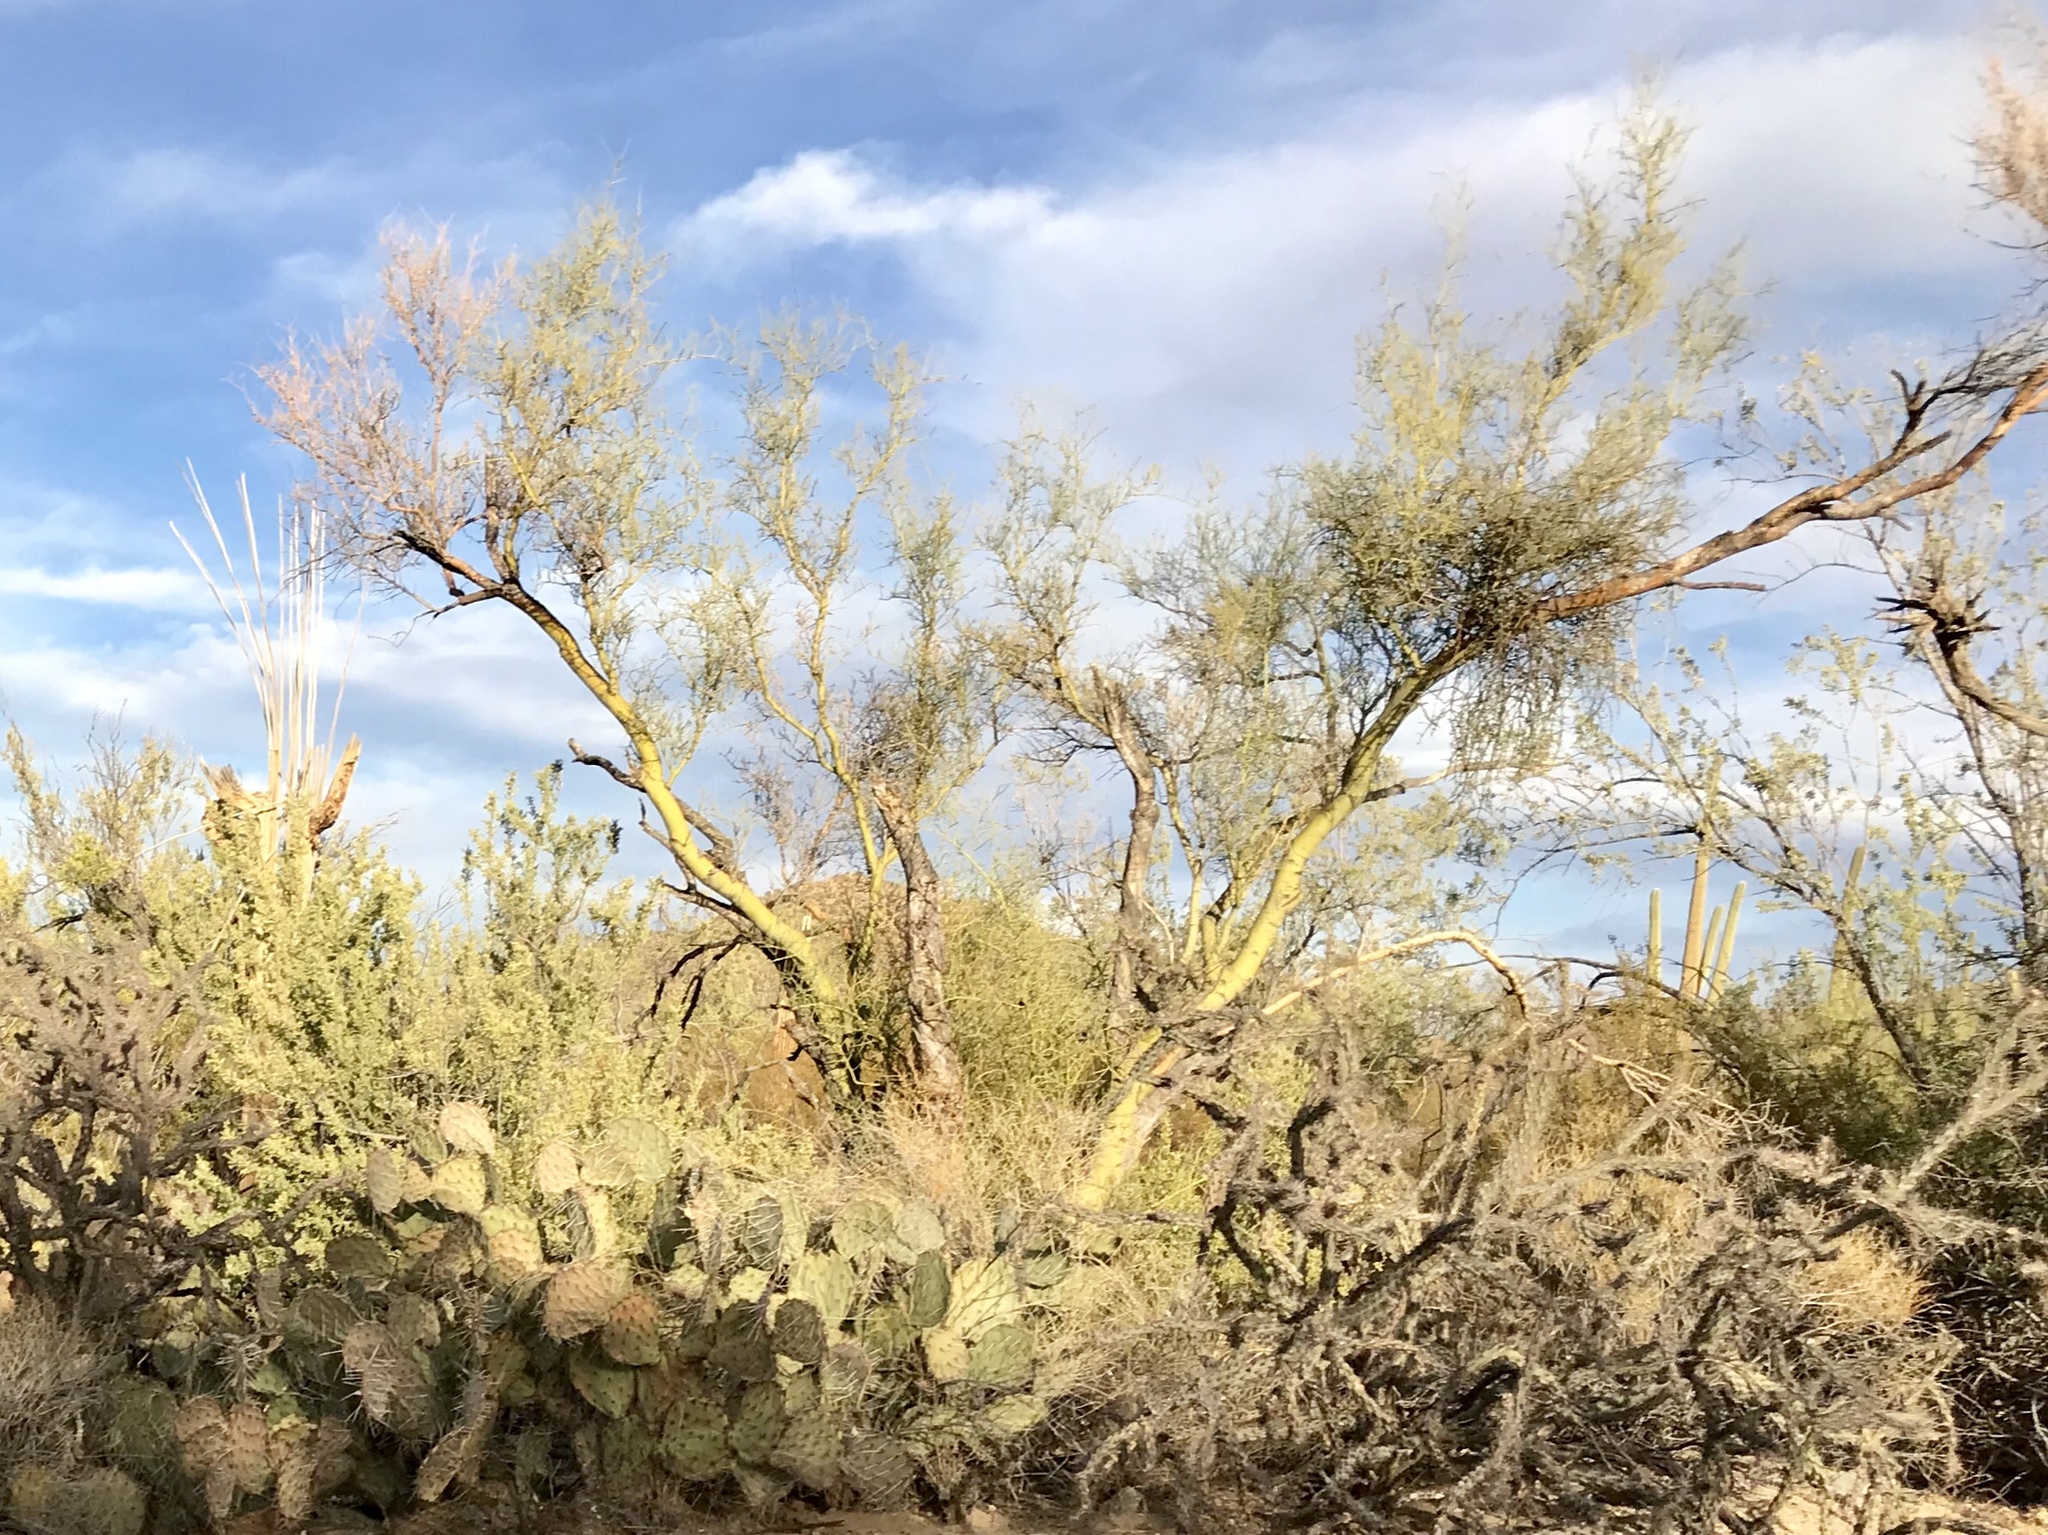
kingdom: Plantae
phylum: Tracheophyta
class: Magnoliopsida
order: Fabales
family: Fabaceae
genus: Parkinsonia
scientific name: Parkinsonia microphylla
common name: Yellow paloverde
